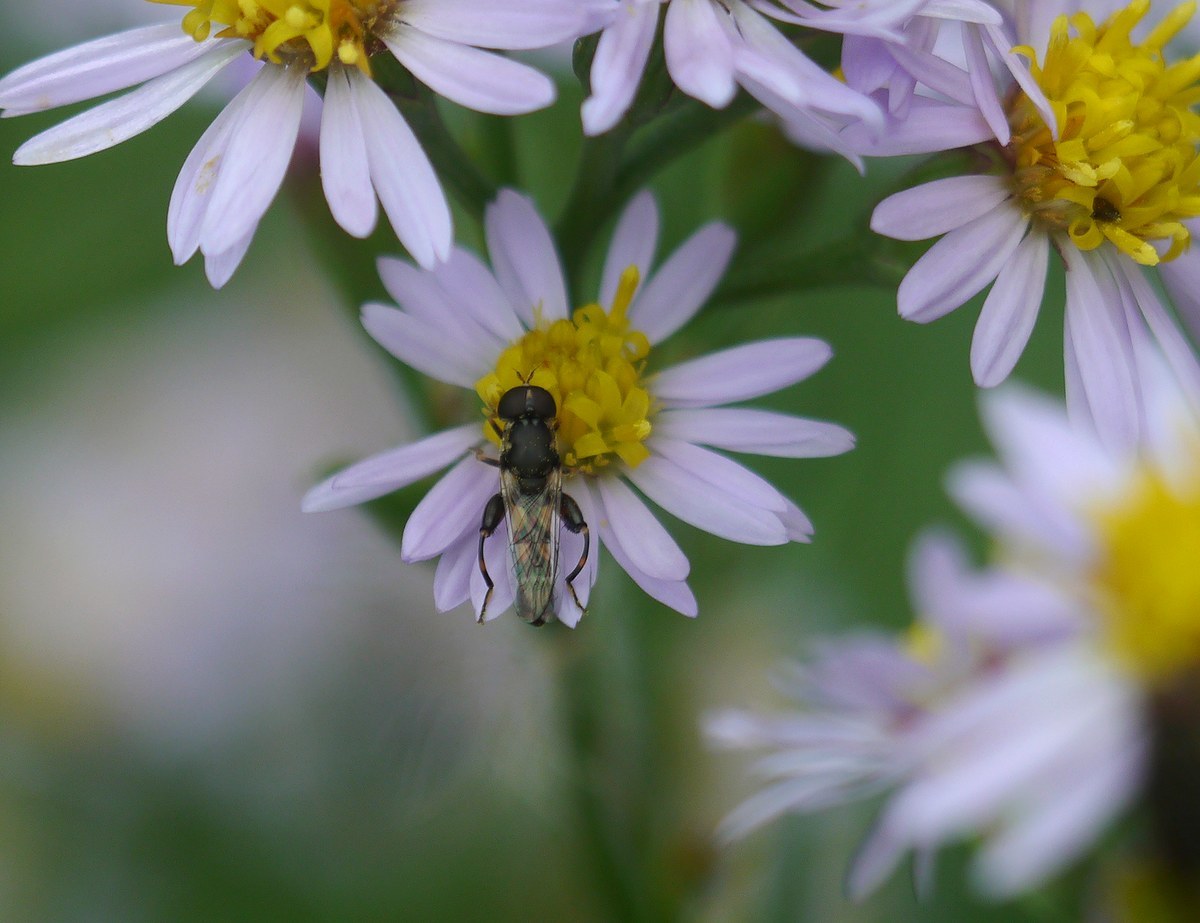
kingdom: Animalia
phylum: Arthropoda
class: Insecta
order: Diptera
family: Syrphidae
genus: Syritta
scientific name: Syritta pipiens
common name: Hover fly
